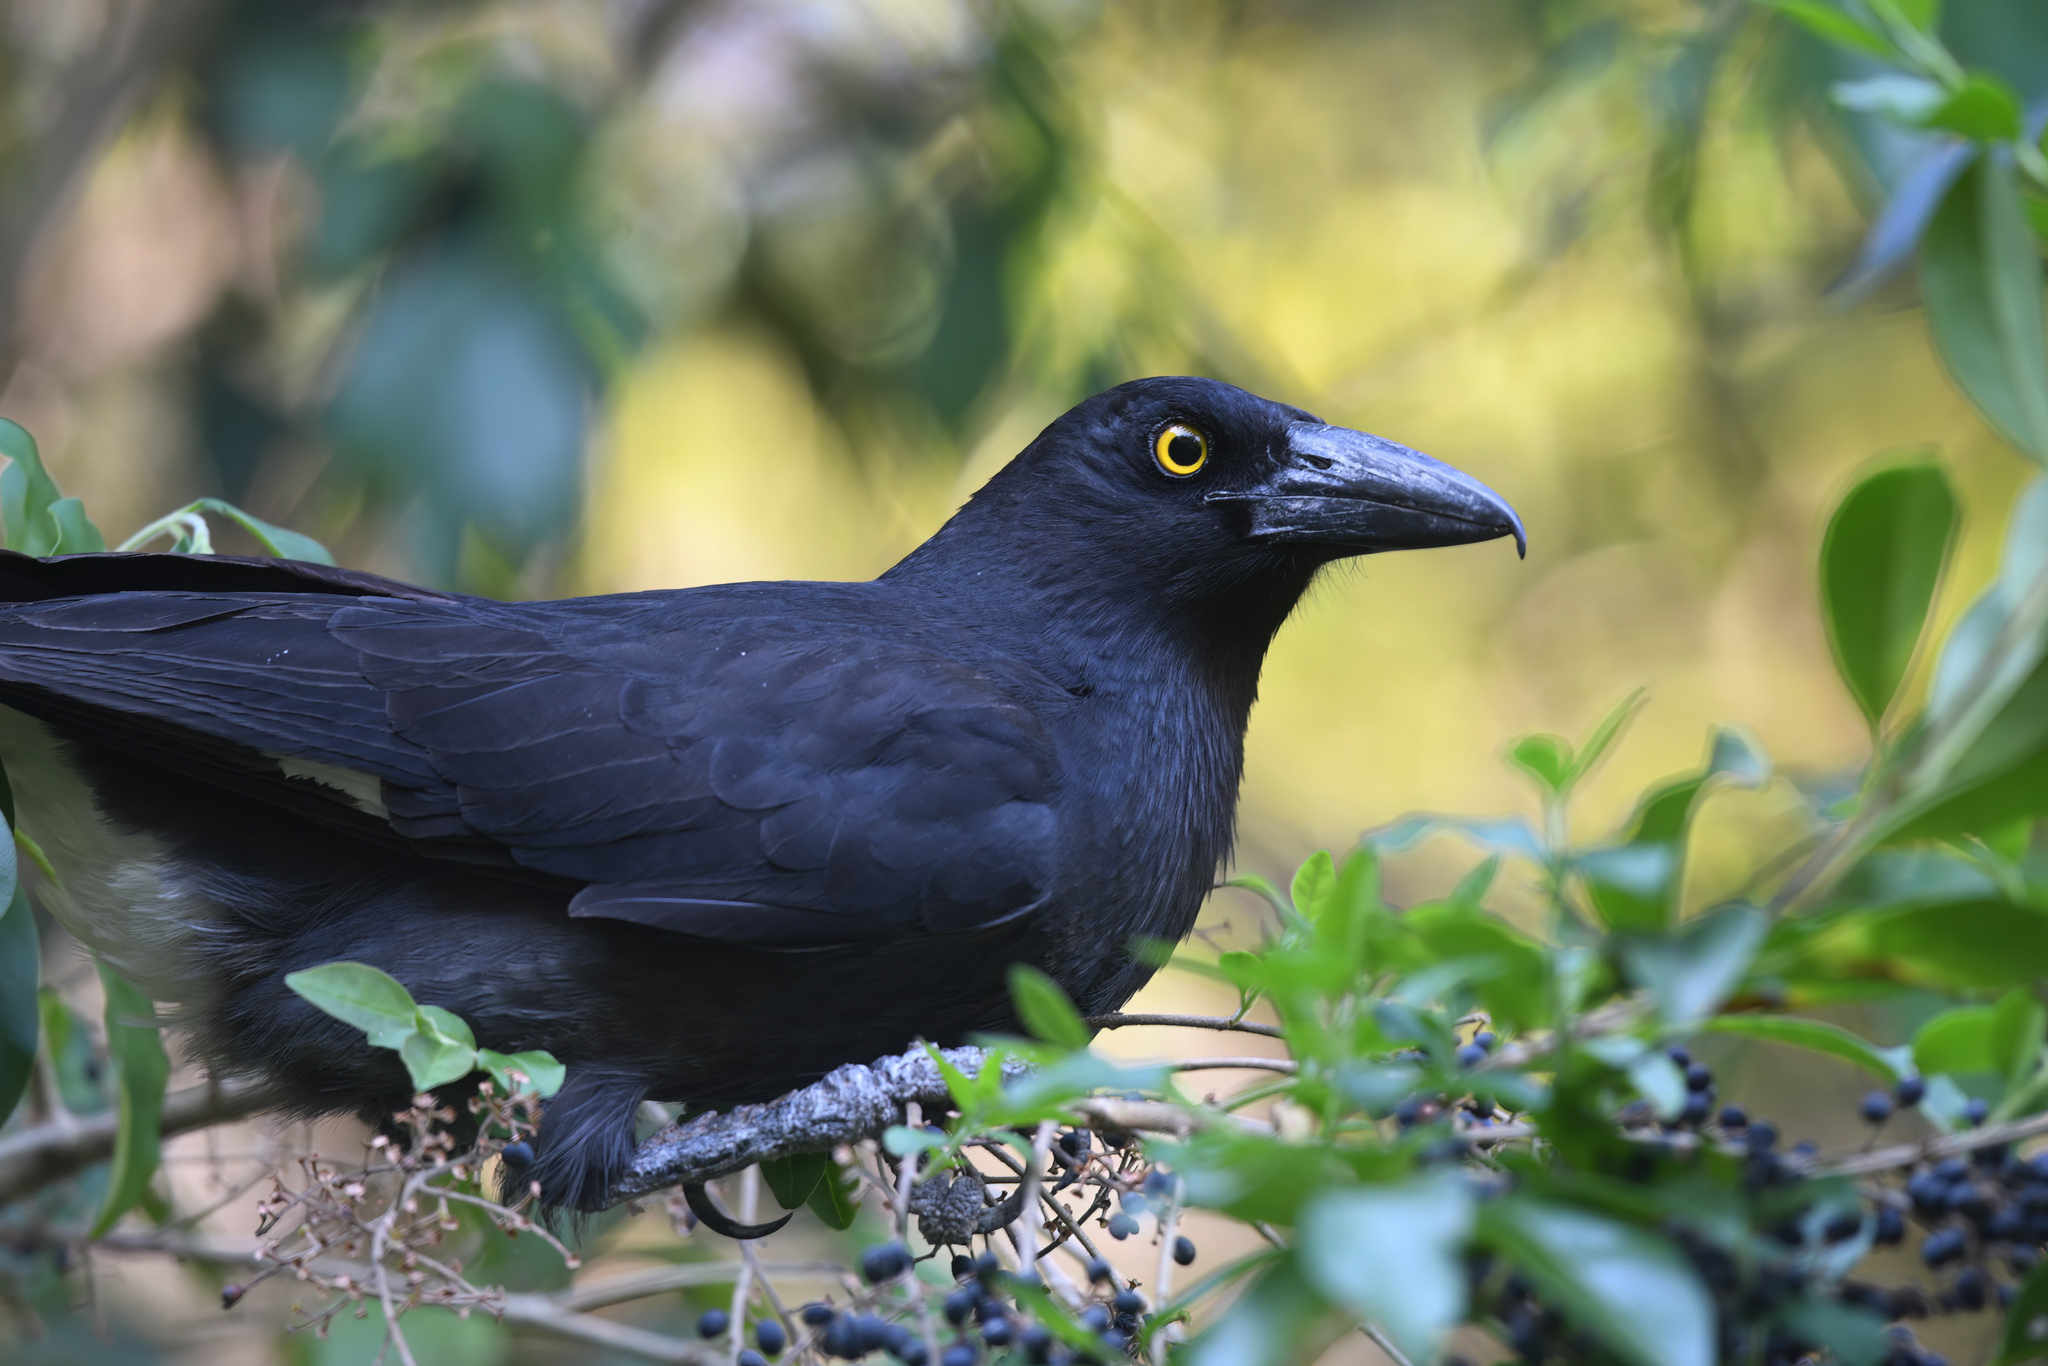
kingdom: Animalia
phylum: Chordata
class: Aves
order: Passeriformes
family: Cracticidae
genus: Strepera
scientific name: Strepera graculina
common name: Pied currawong
